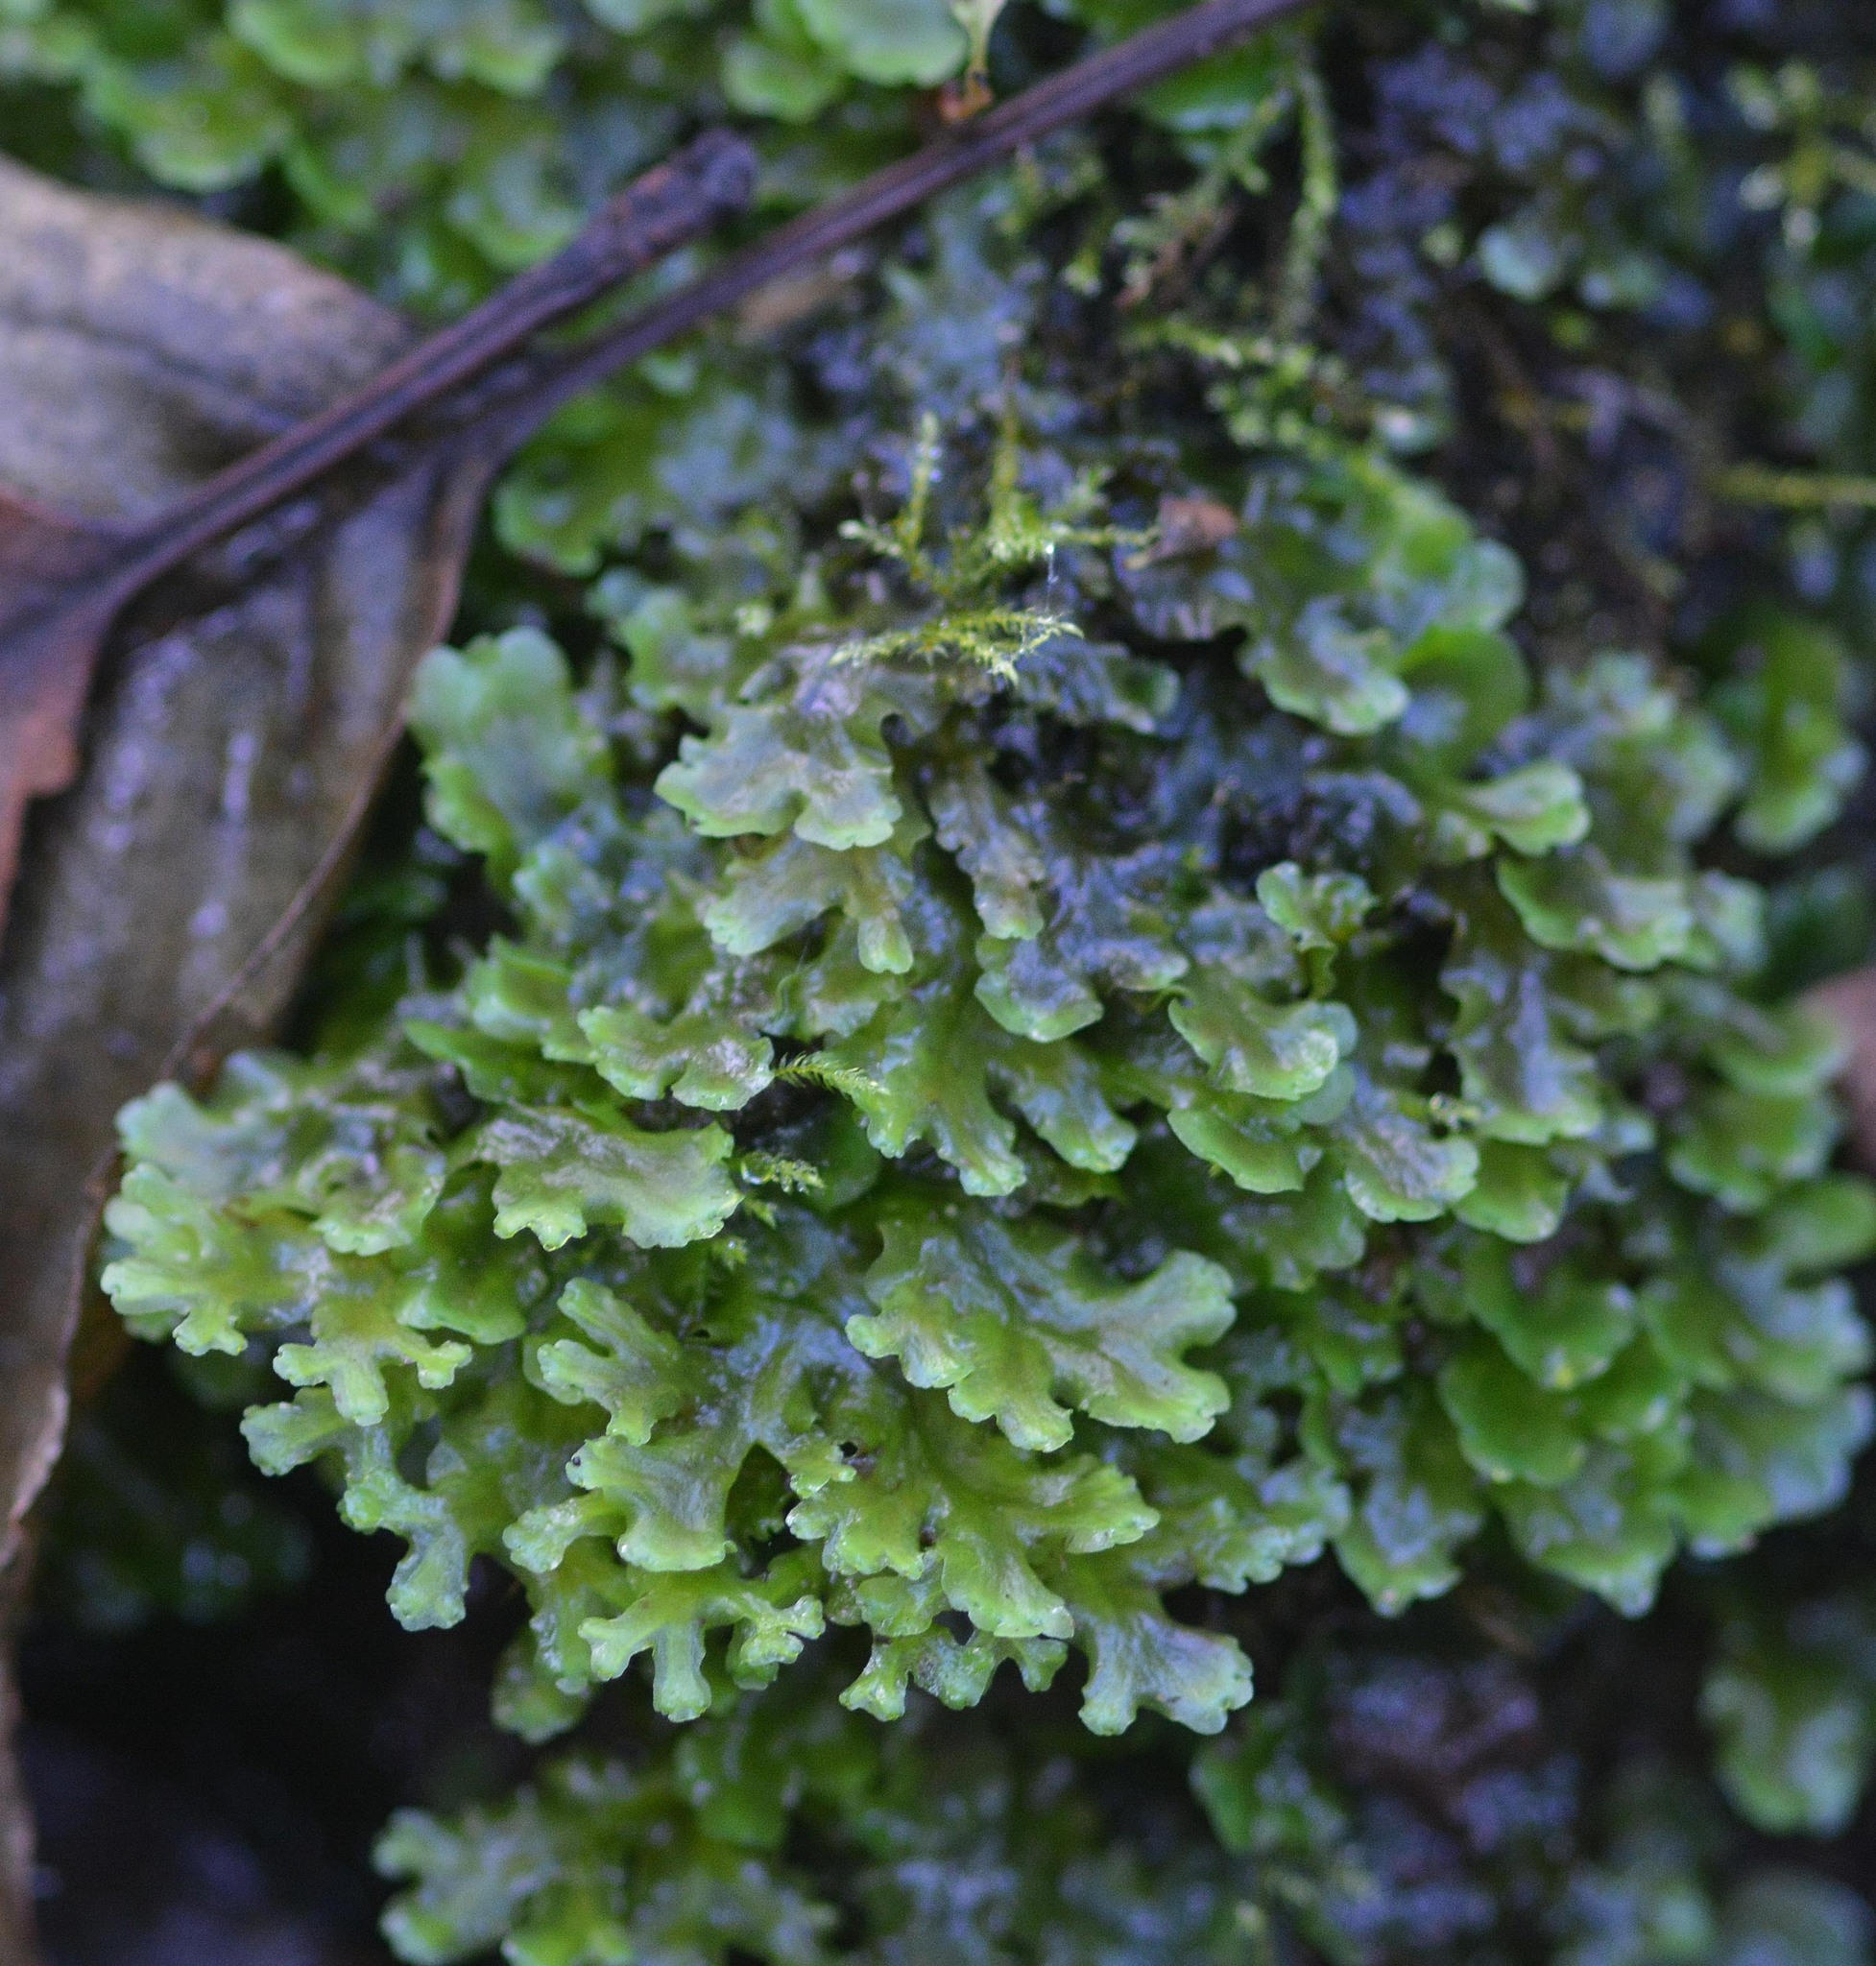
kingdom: Plantae
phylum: Marchantiophyta
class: Jungermanniopsida
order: Pelliales
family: Pelliaceae
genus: Apopellia
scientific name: Apopellia endiviifolia
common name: Endive pellia
